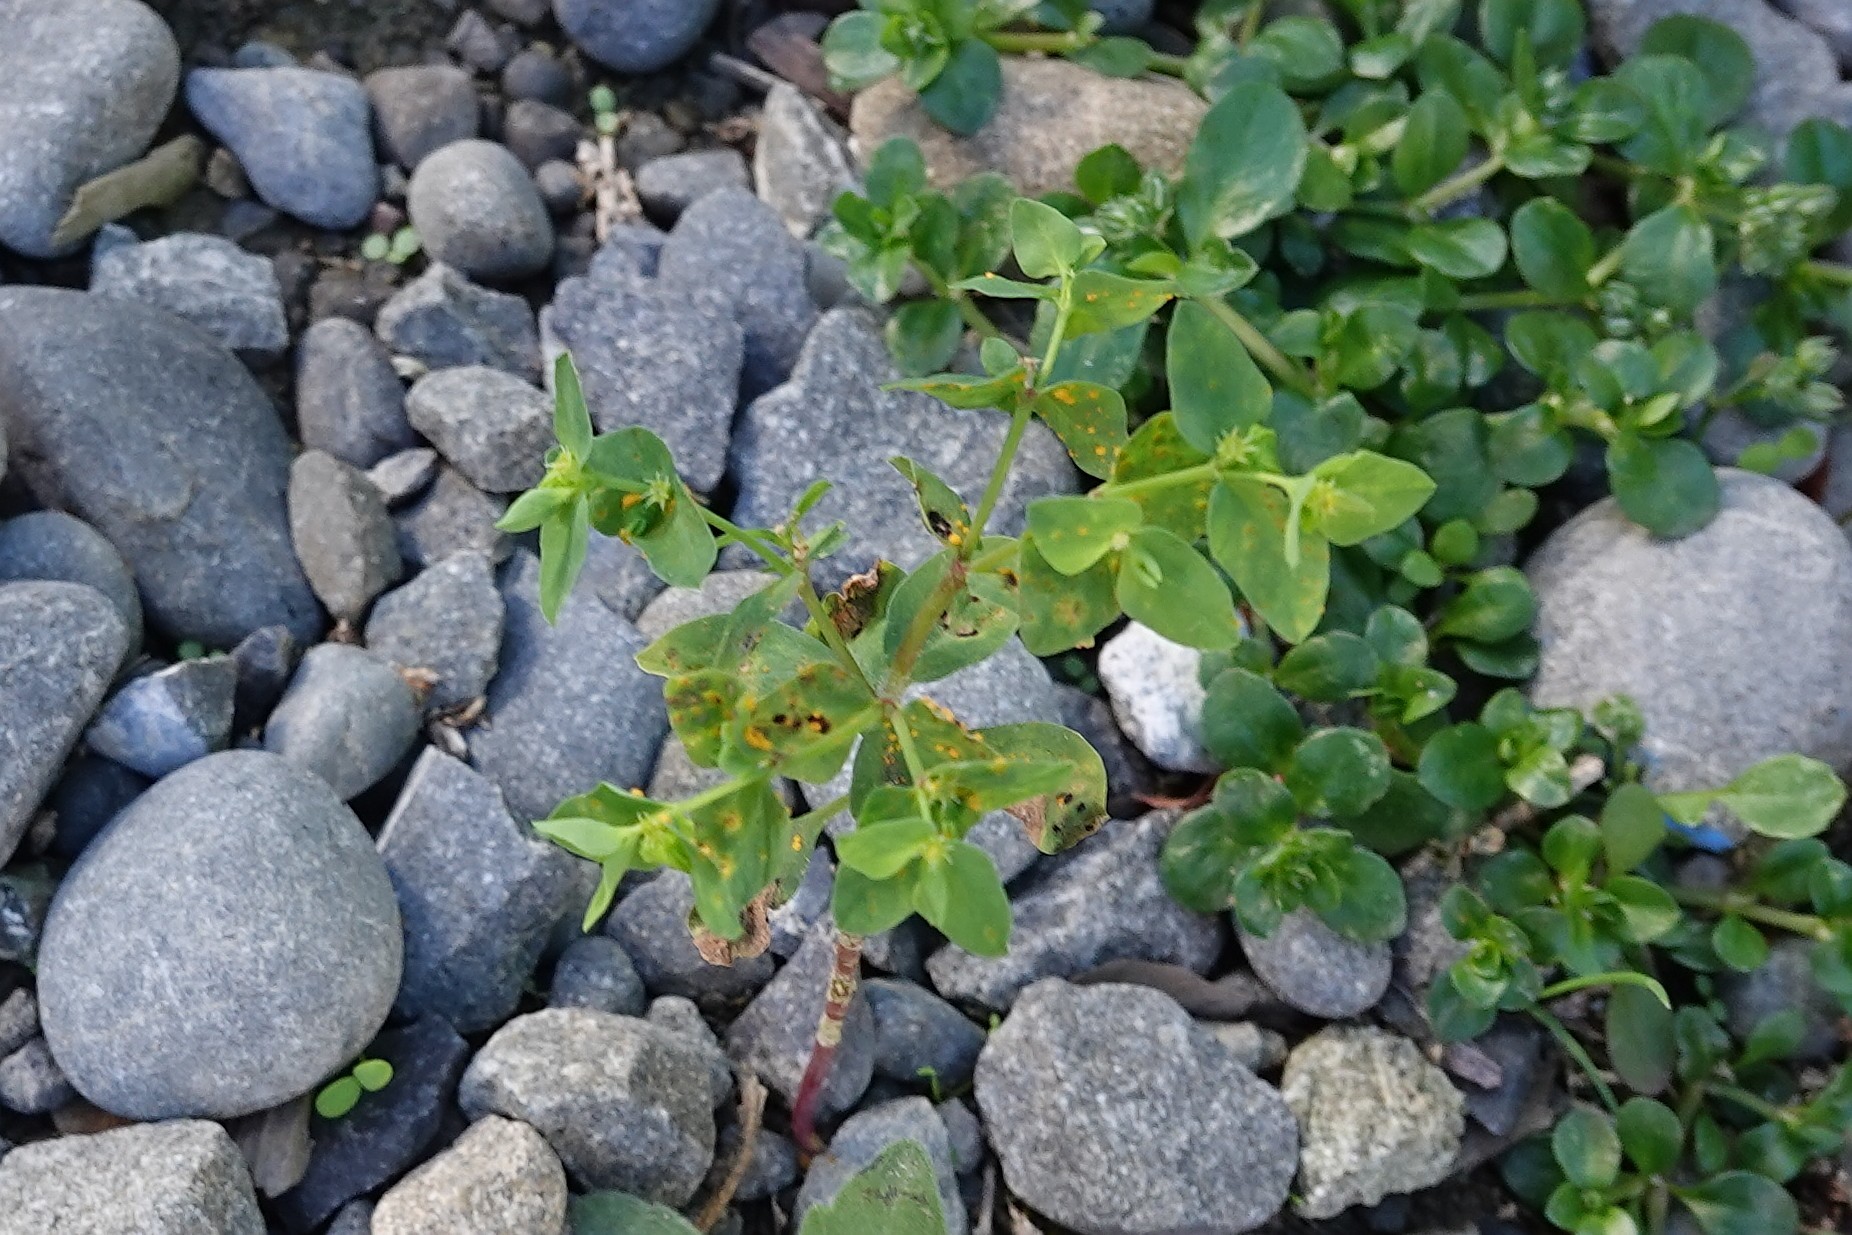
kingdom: Plantae
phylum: Tracheophyta
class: Magnoliopsida
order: Malpighiales
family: Euphorbiaceae
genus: Euphorbia
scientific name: Euphorbia peplus
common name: Petty spurge
